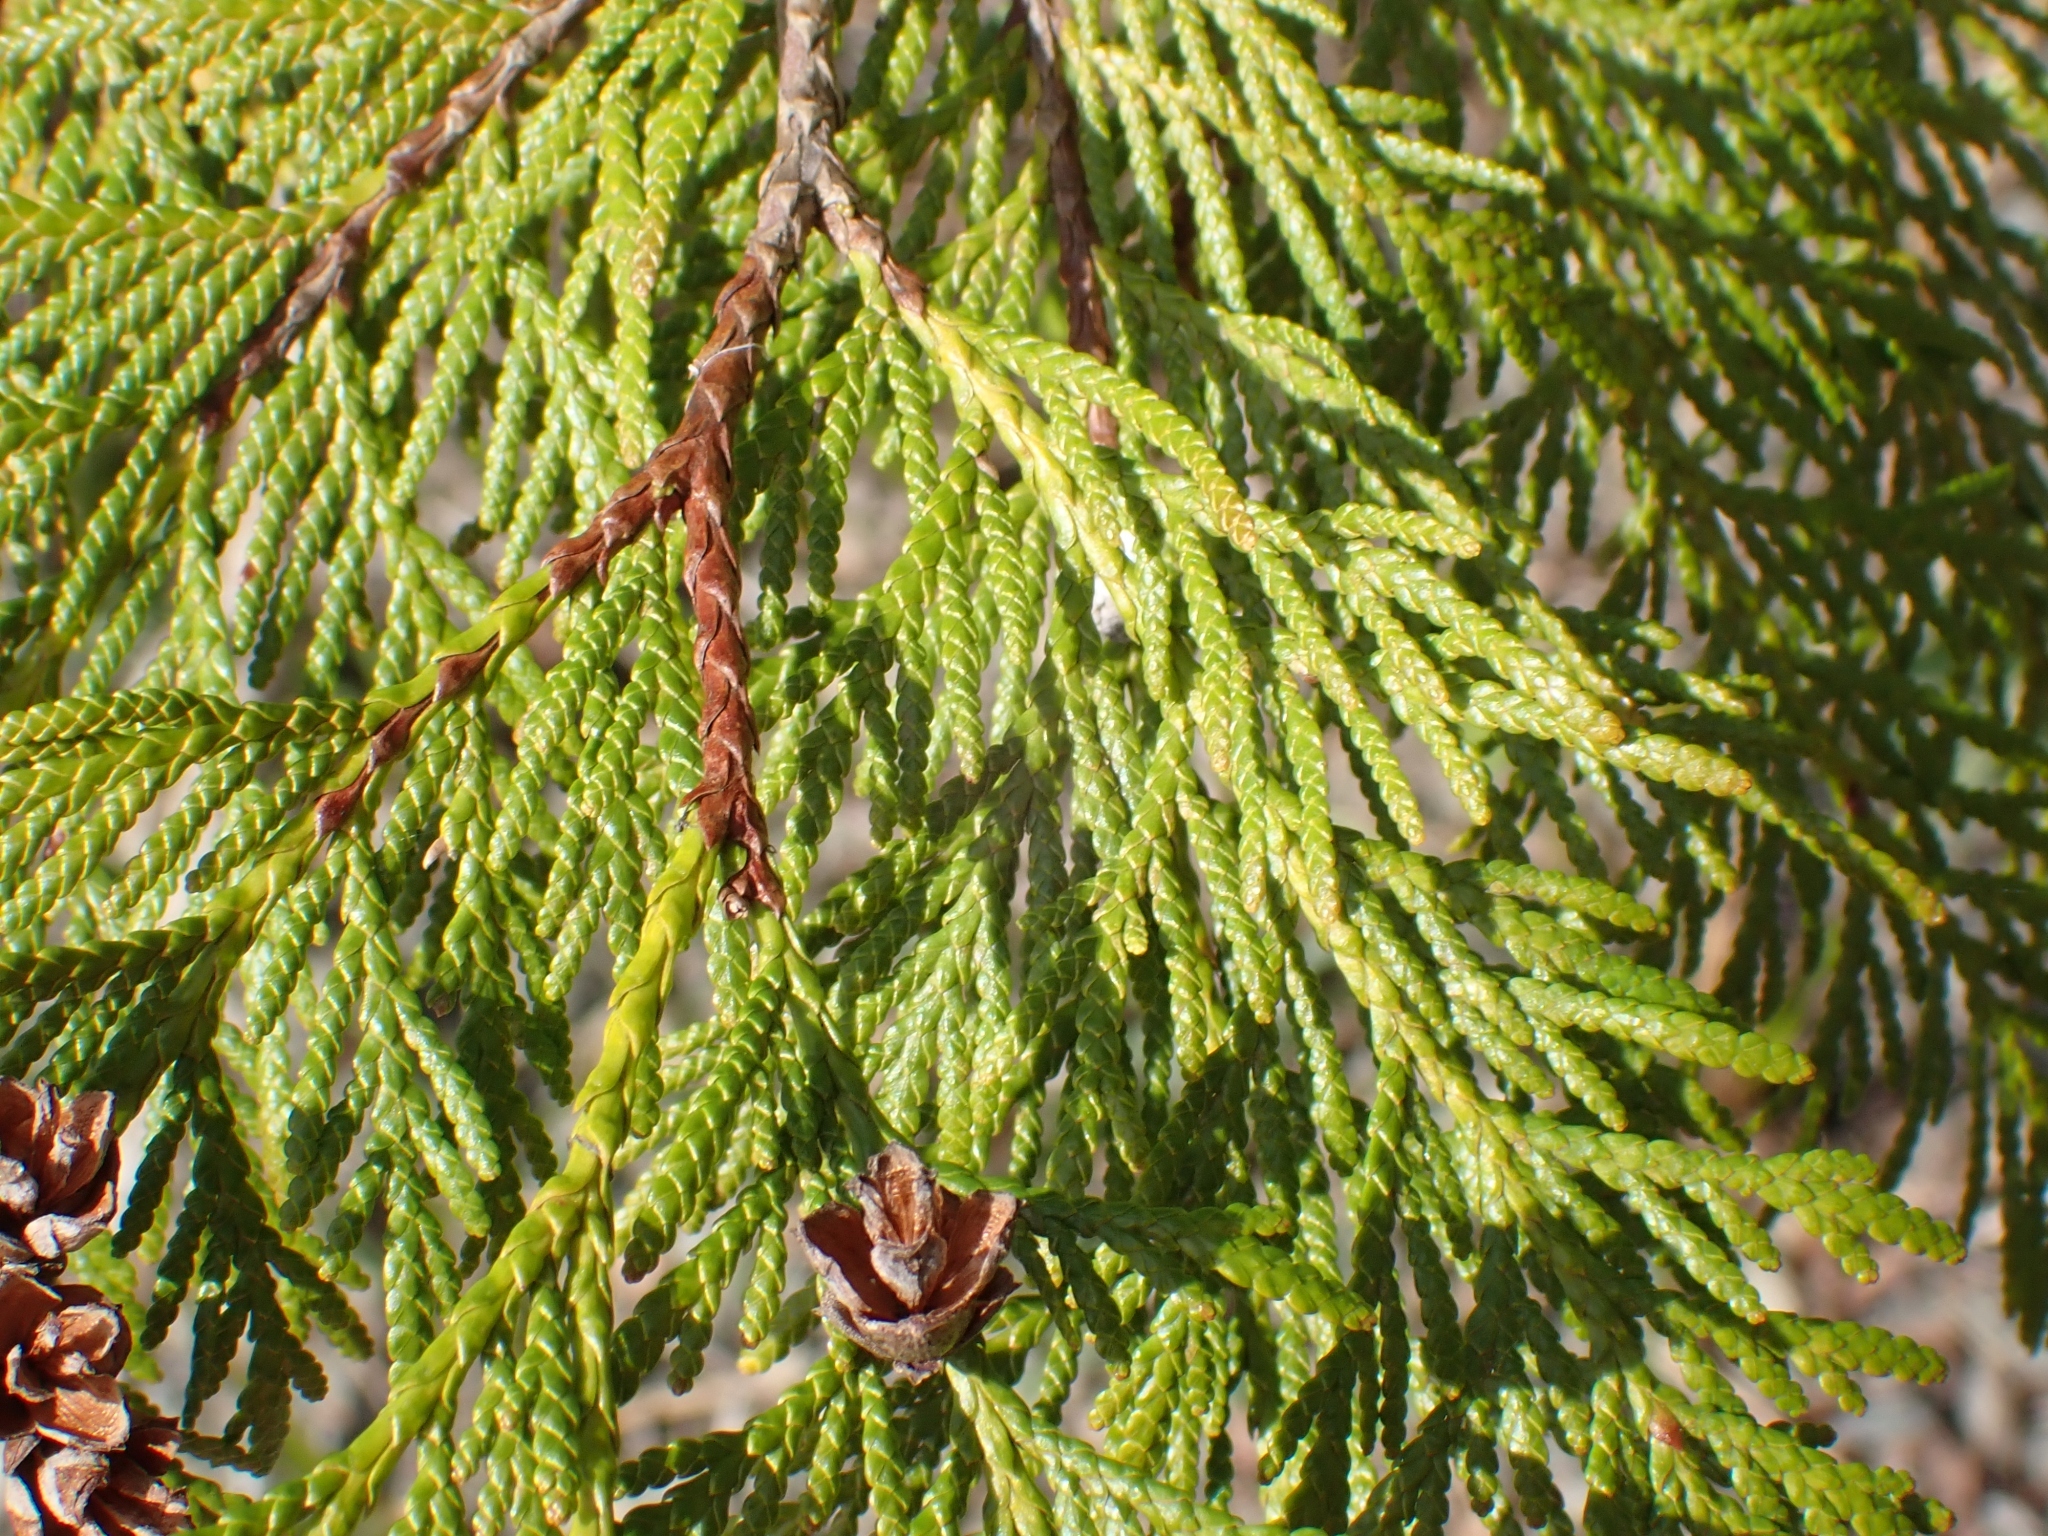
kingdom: Plantae
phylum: Tracheophyta
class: Pinopsida
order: Pinales
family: Cupressaceae
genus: Thuja
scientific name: Thuja plicata
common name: Western red-cedar
